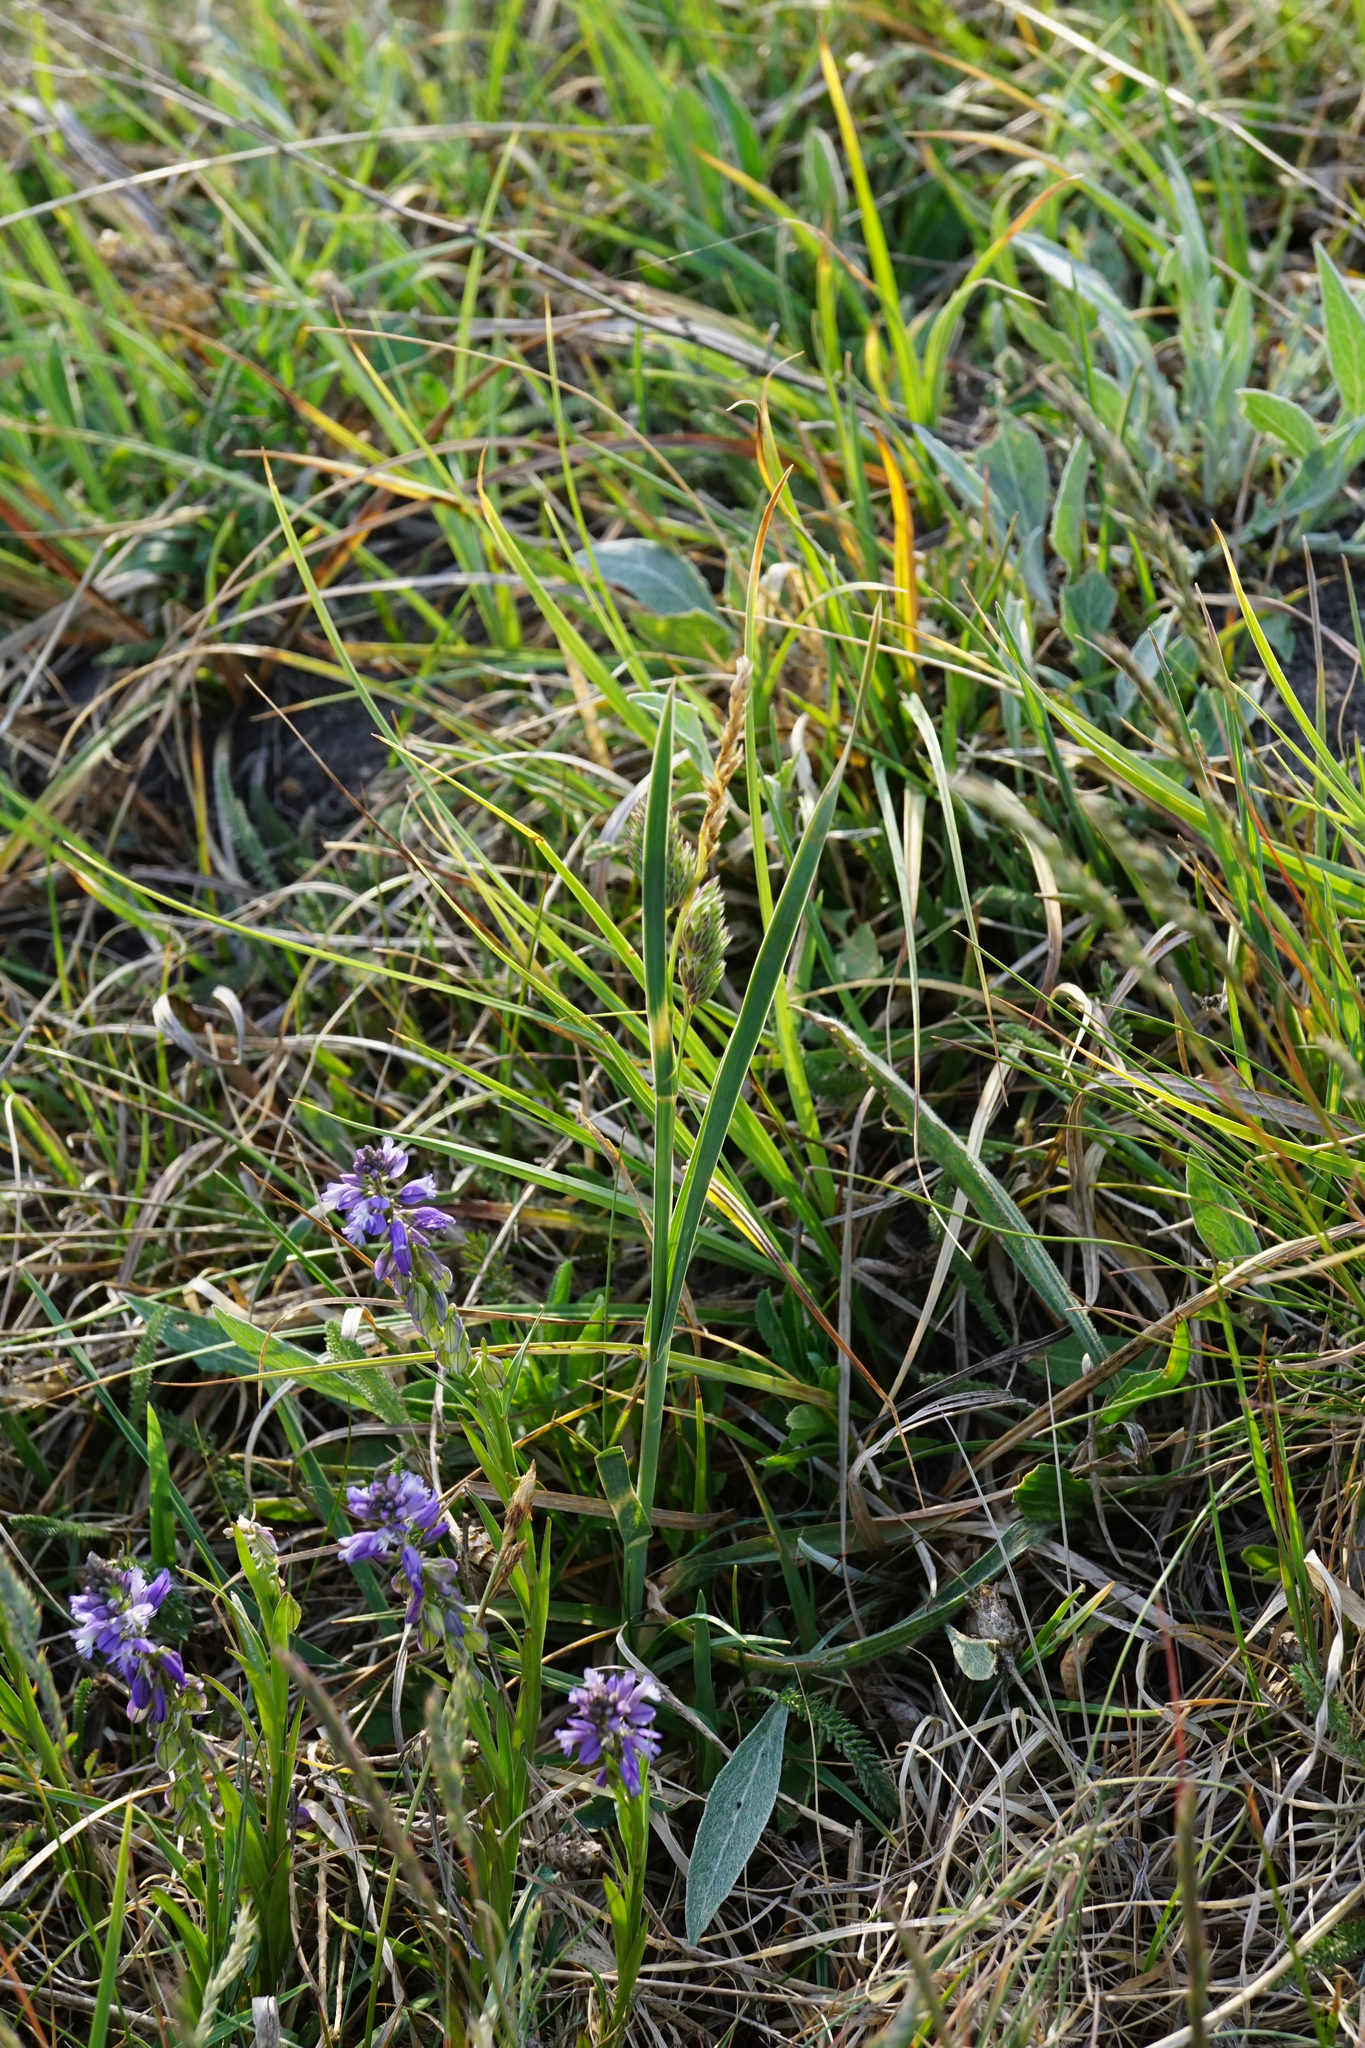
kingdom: Plantae
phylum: Tracheophyta
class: Liliopsida
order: Poales
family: Poaceae
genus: Dactylis
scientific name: Dactylis glomerata
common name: Orchardgrass
